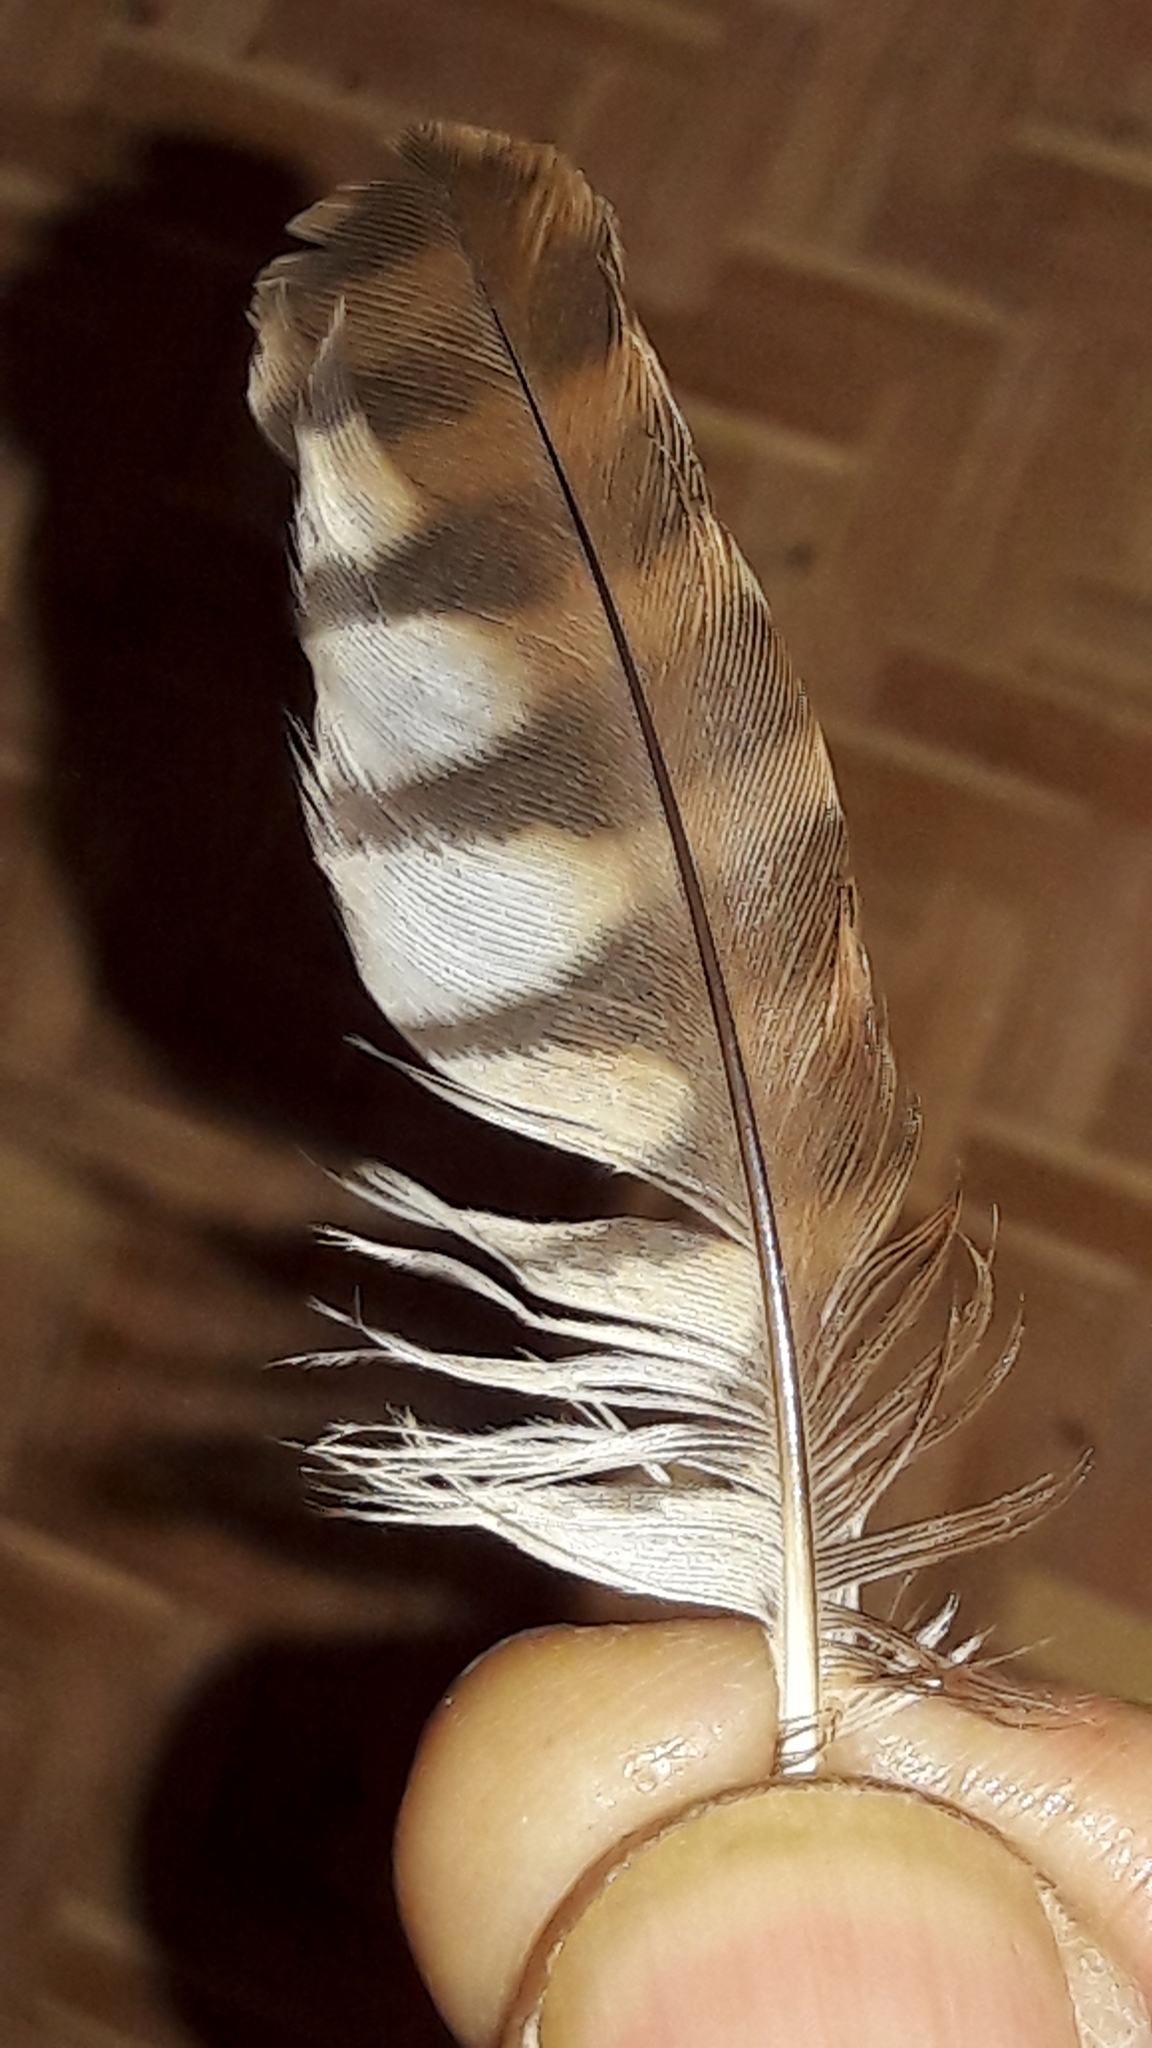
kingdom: Animalia
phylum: Chordata
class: Aves
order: Strigiformes
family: Strigidae
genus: Glaucidium
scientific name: Glaucidium brasilianum
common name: Ferruginous pygmy-owl
